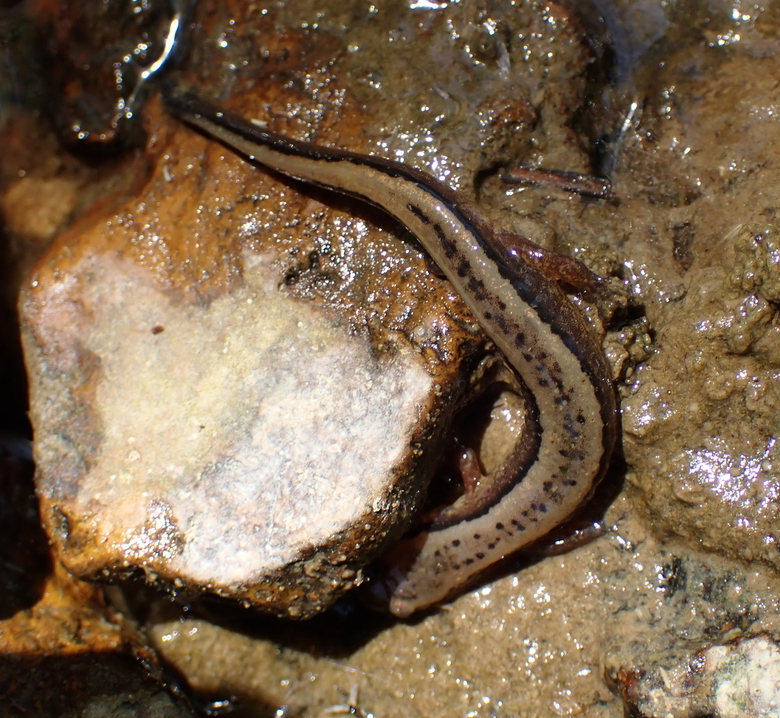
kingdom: Animalia
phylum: Chordata
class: Amphibia
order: Caudata
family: Plethodontidae
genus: Eurycea
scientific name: Eurycea aquatica
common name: Brown-backed salamander
